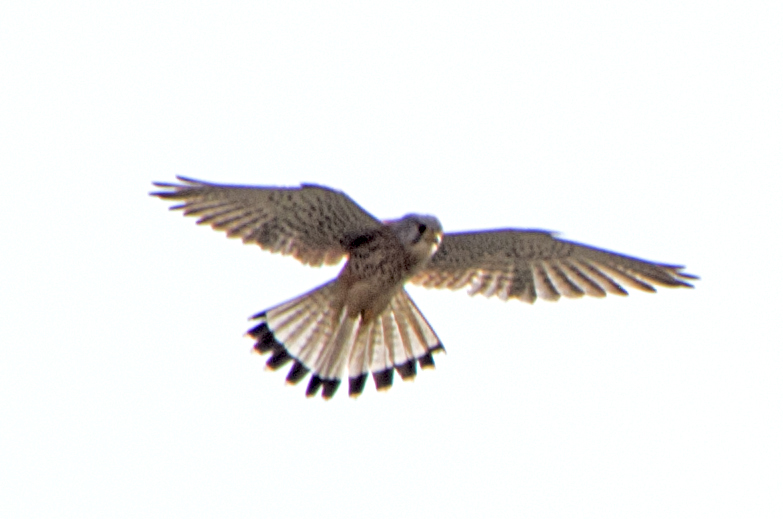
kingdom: Animalia
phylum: Chordata
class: Aves
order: Falconiformes
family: Falconidae
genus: Falco
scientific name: Falco tinnunculus
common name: Common kestrel
